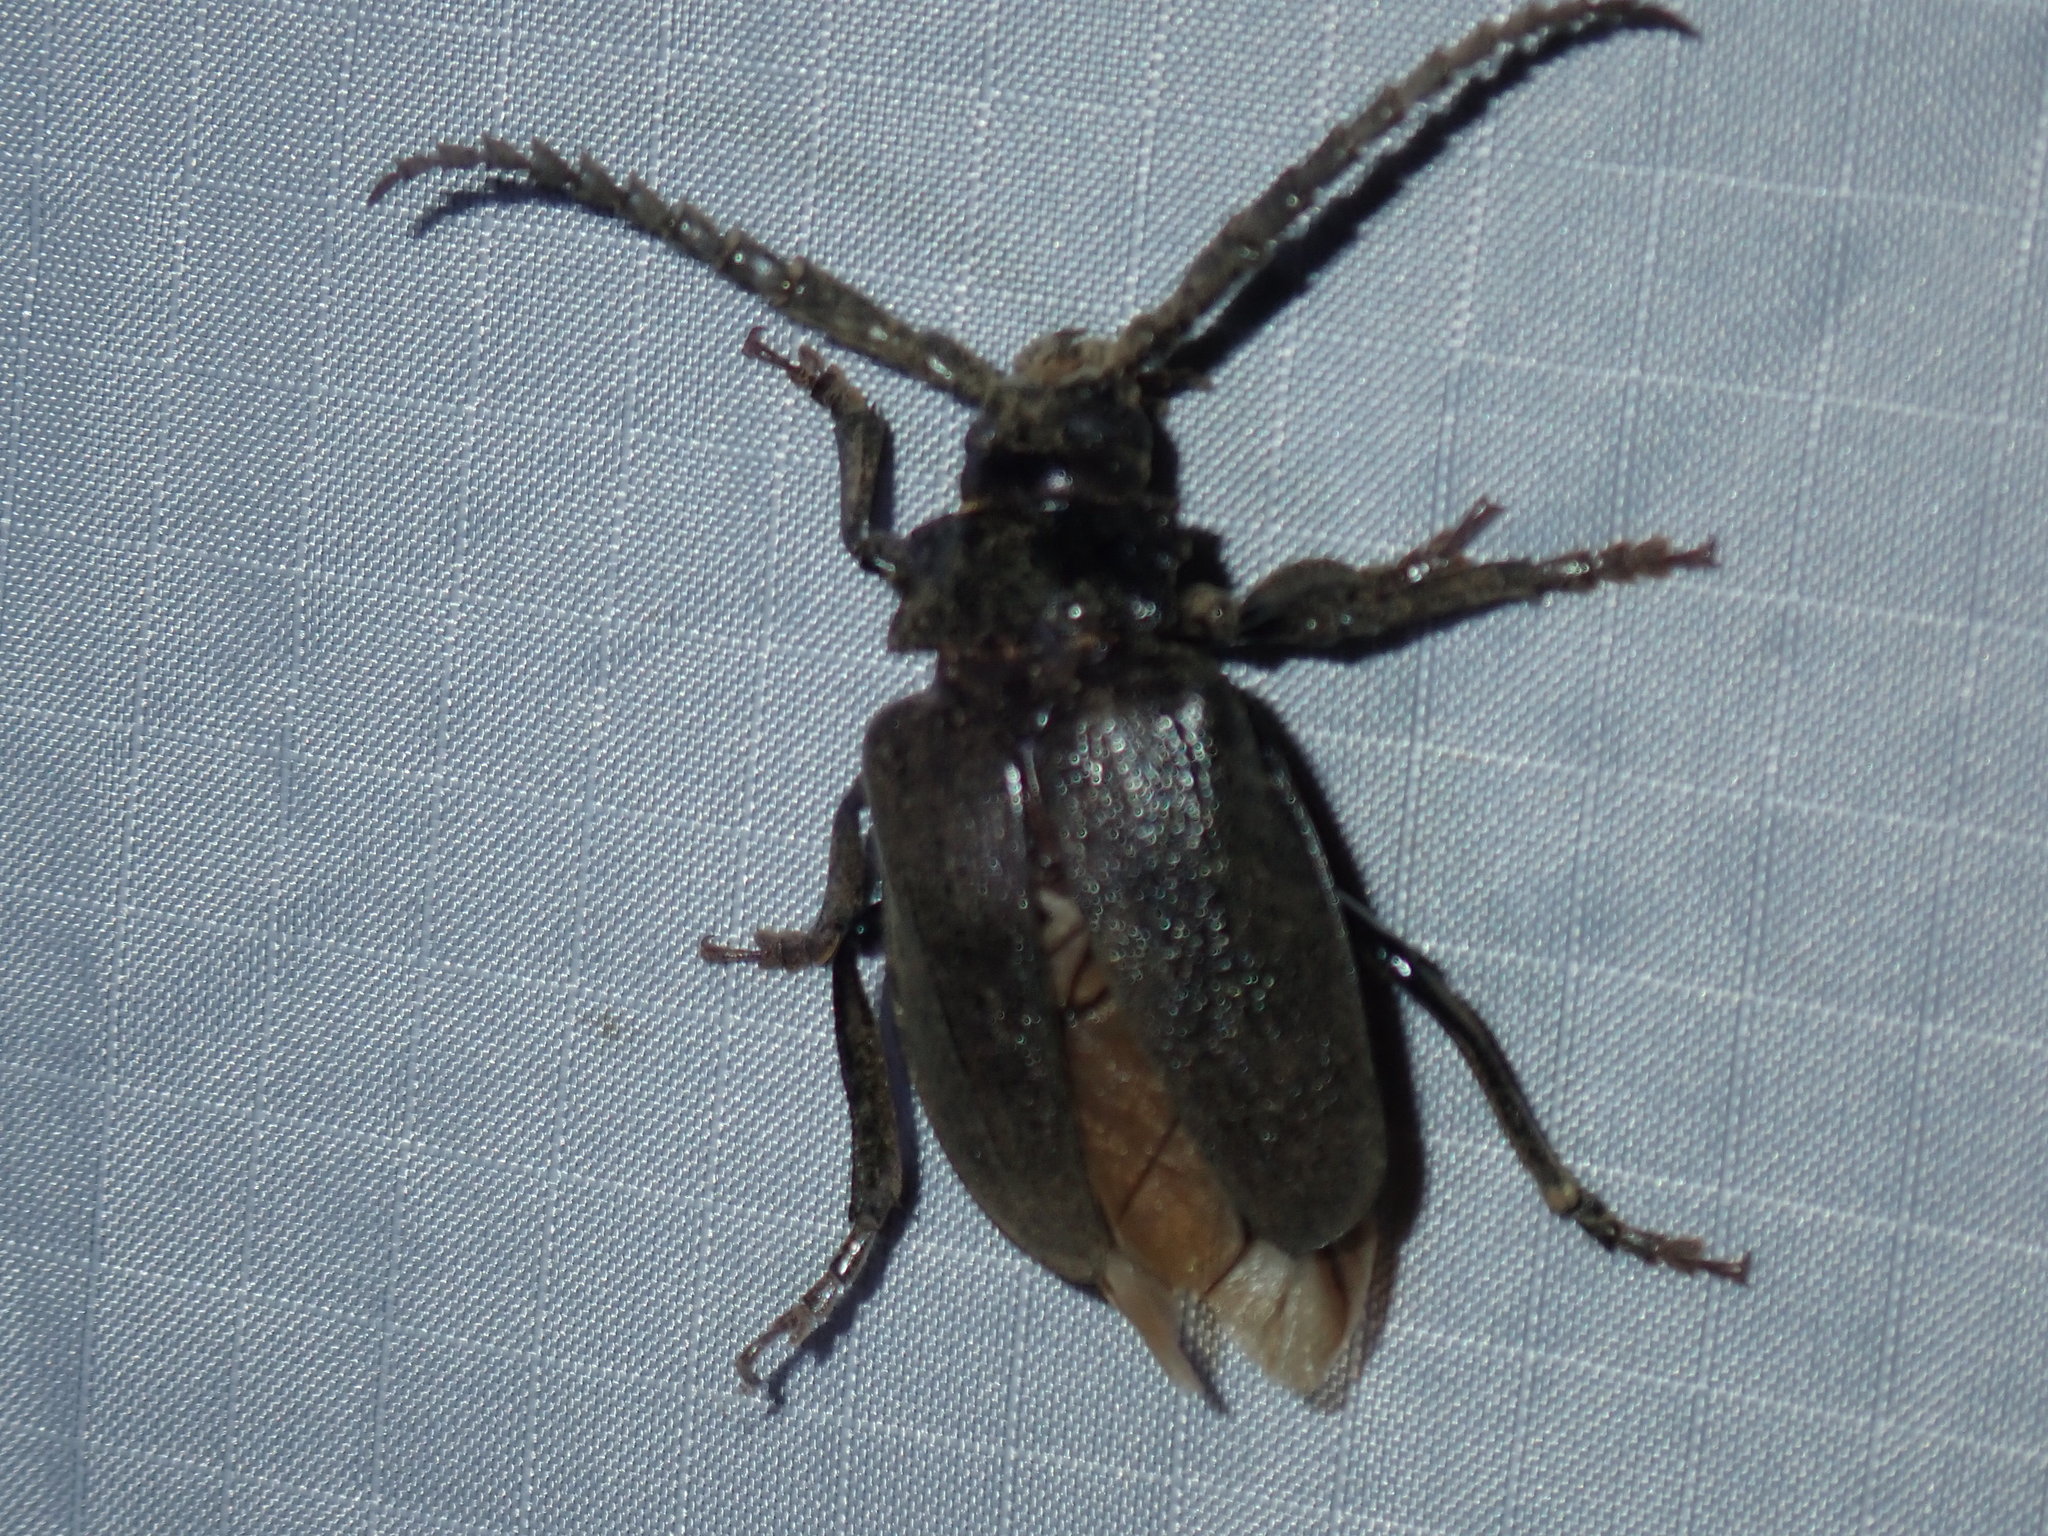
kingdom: Animalia
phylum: Arthropoda
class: Insecta
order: Coleoptera
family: Cerambycidae
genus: Prionus
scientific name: Prionus laticollis
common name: Broad necked prionus
